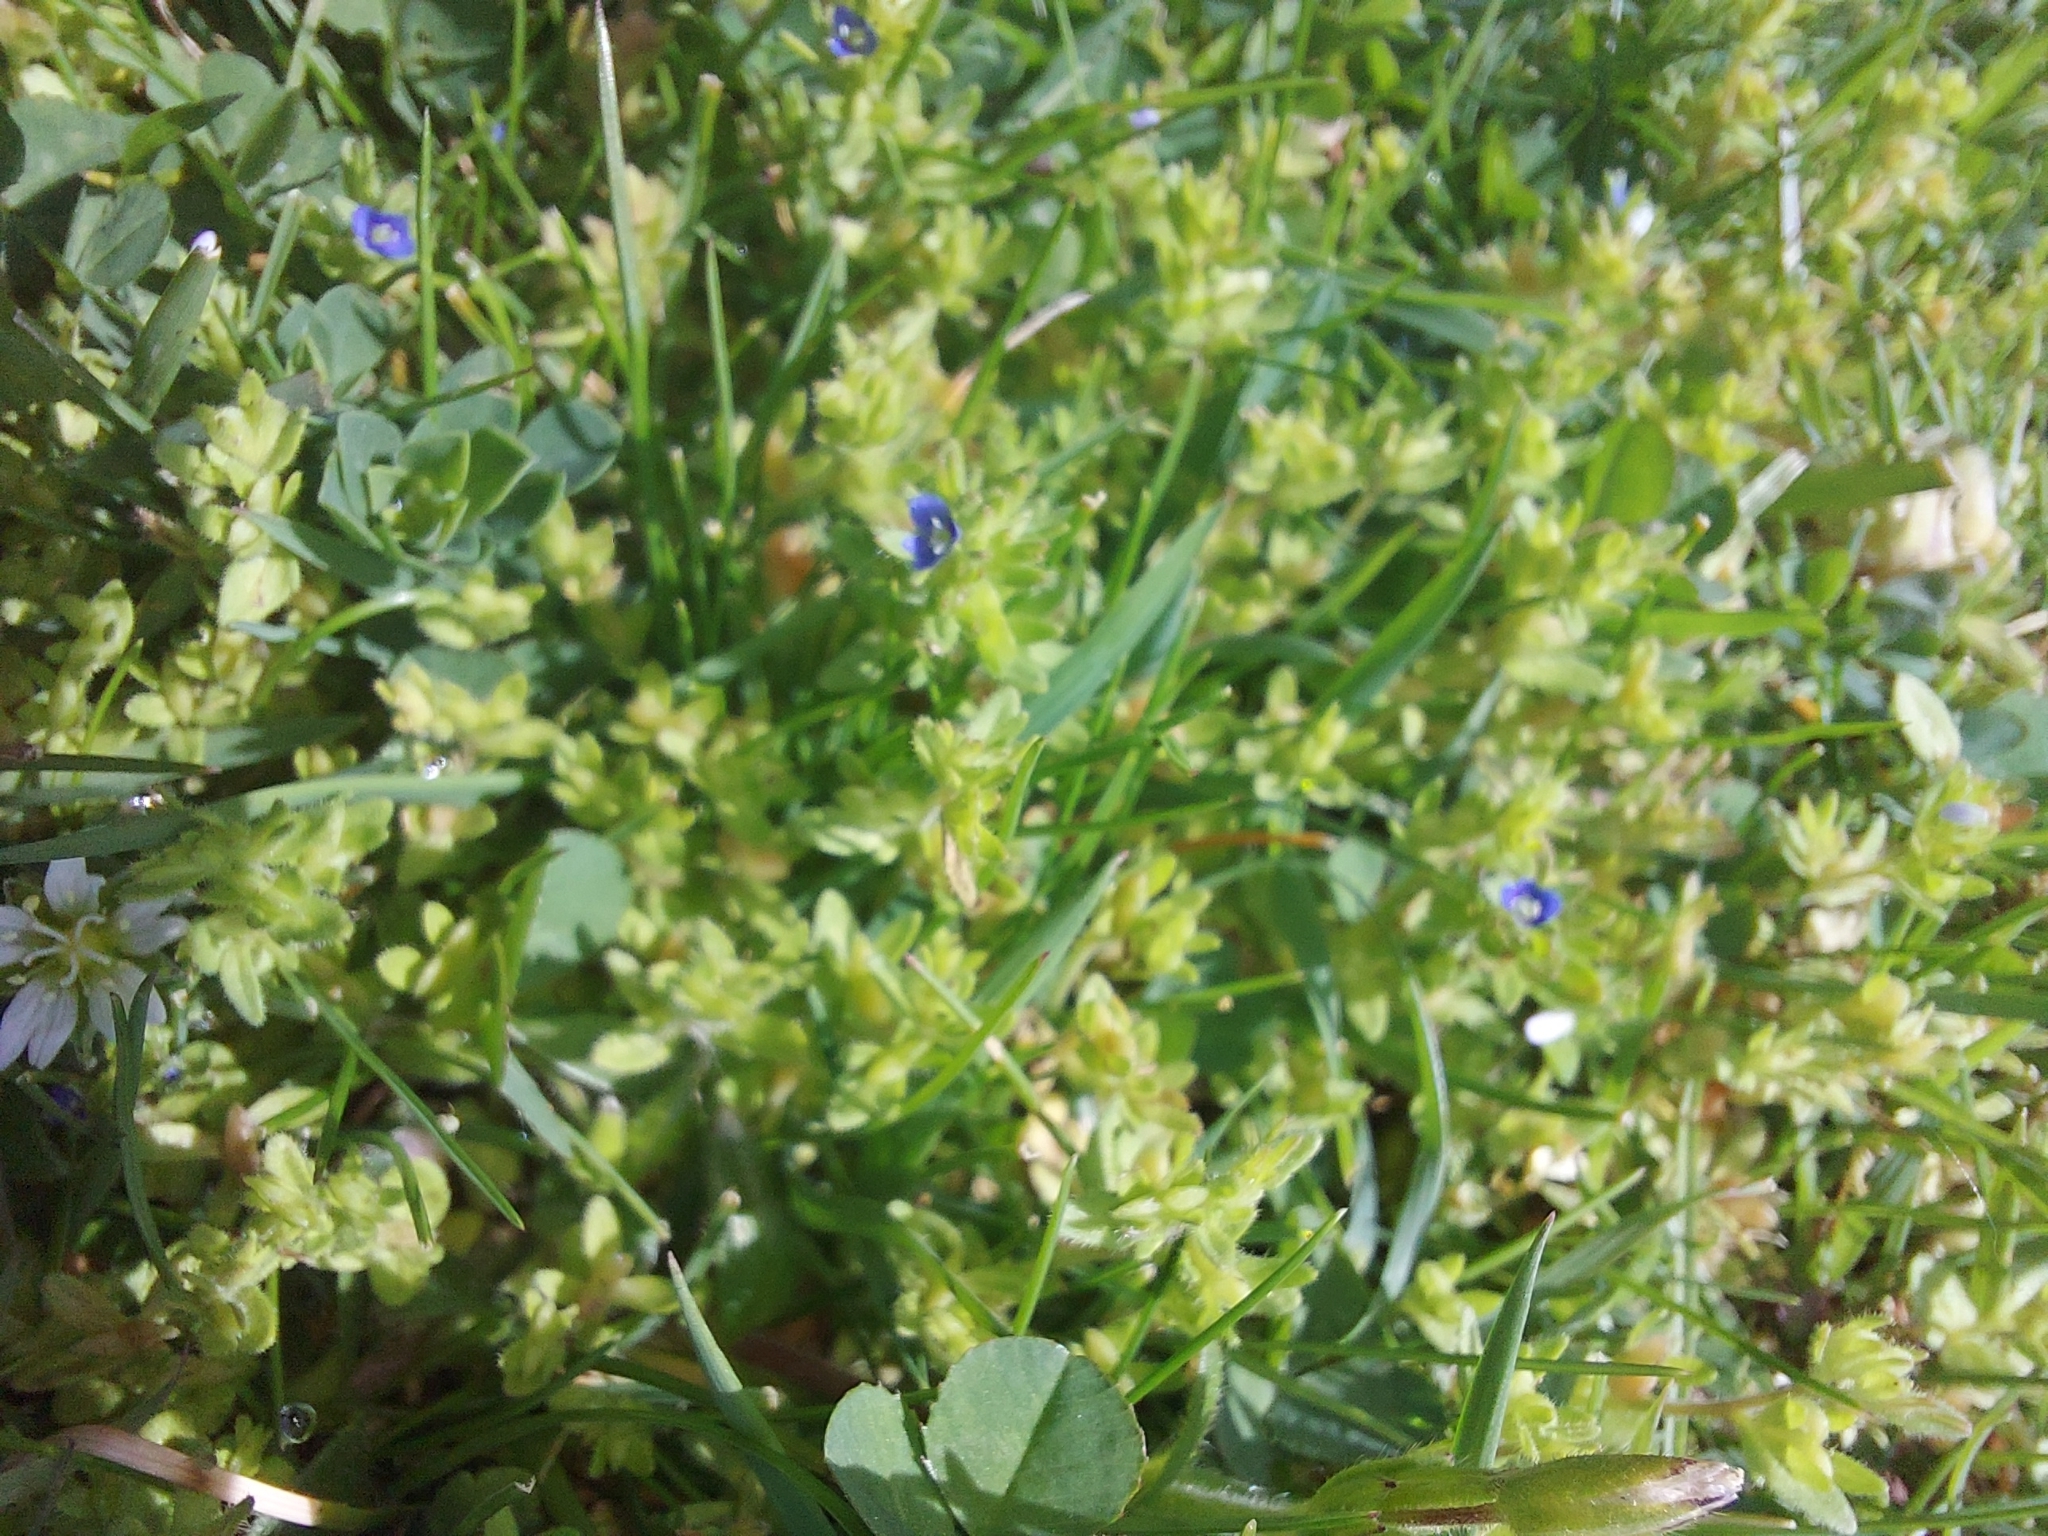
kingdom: Plantae
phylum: Tracheophyta
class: Magnoliopsida
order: Lamiales
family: Plantaginaceae
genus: Veronica
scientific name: Veronica arvensis
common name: Corn speedwell
